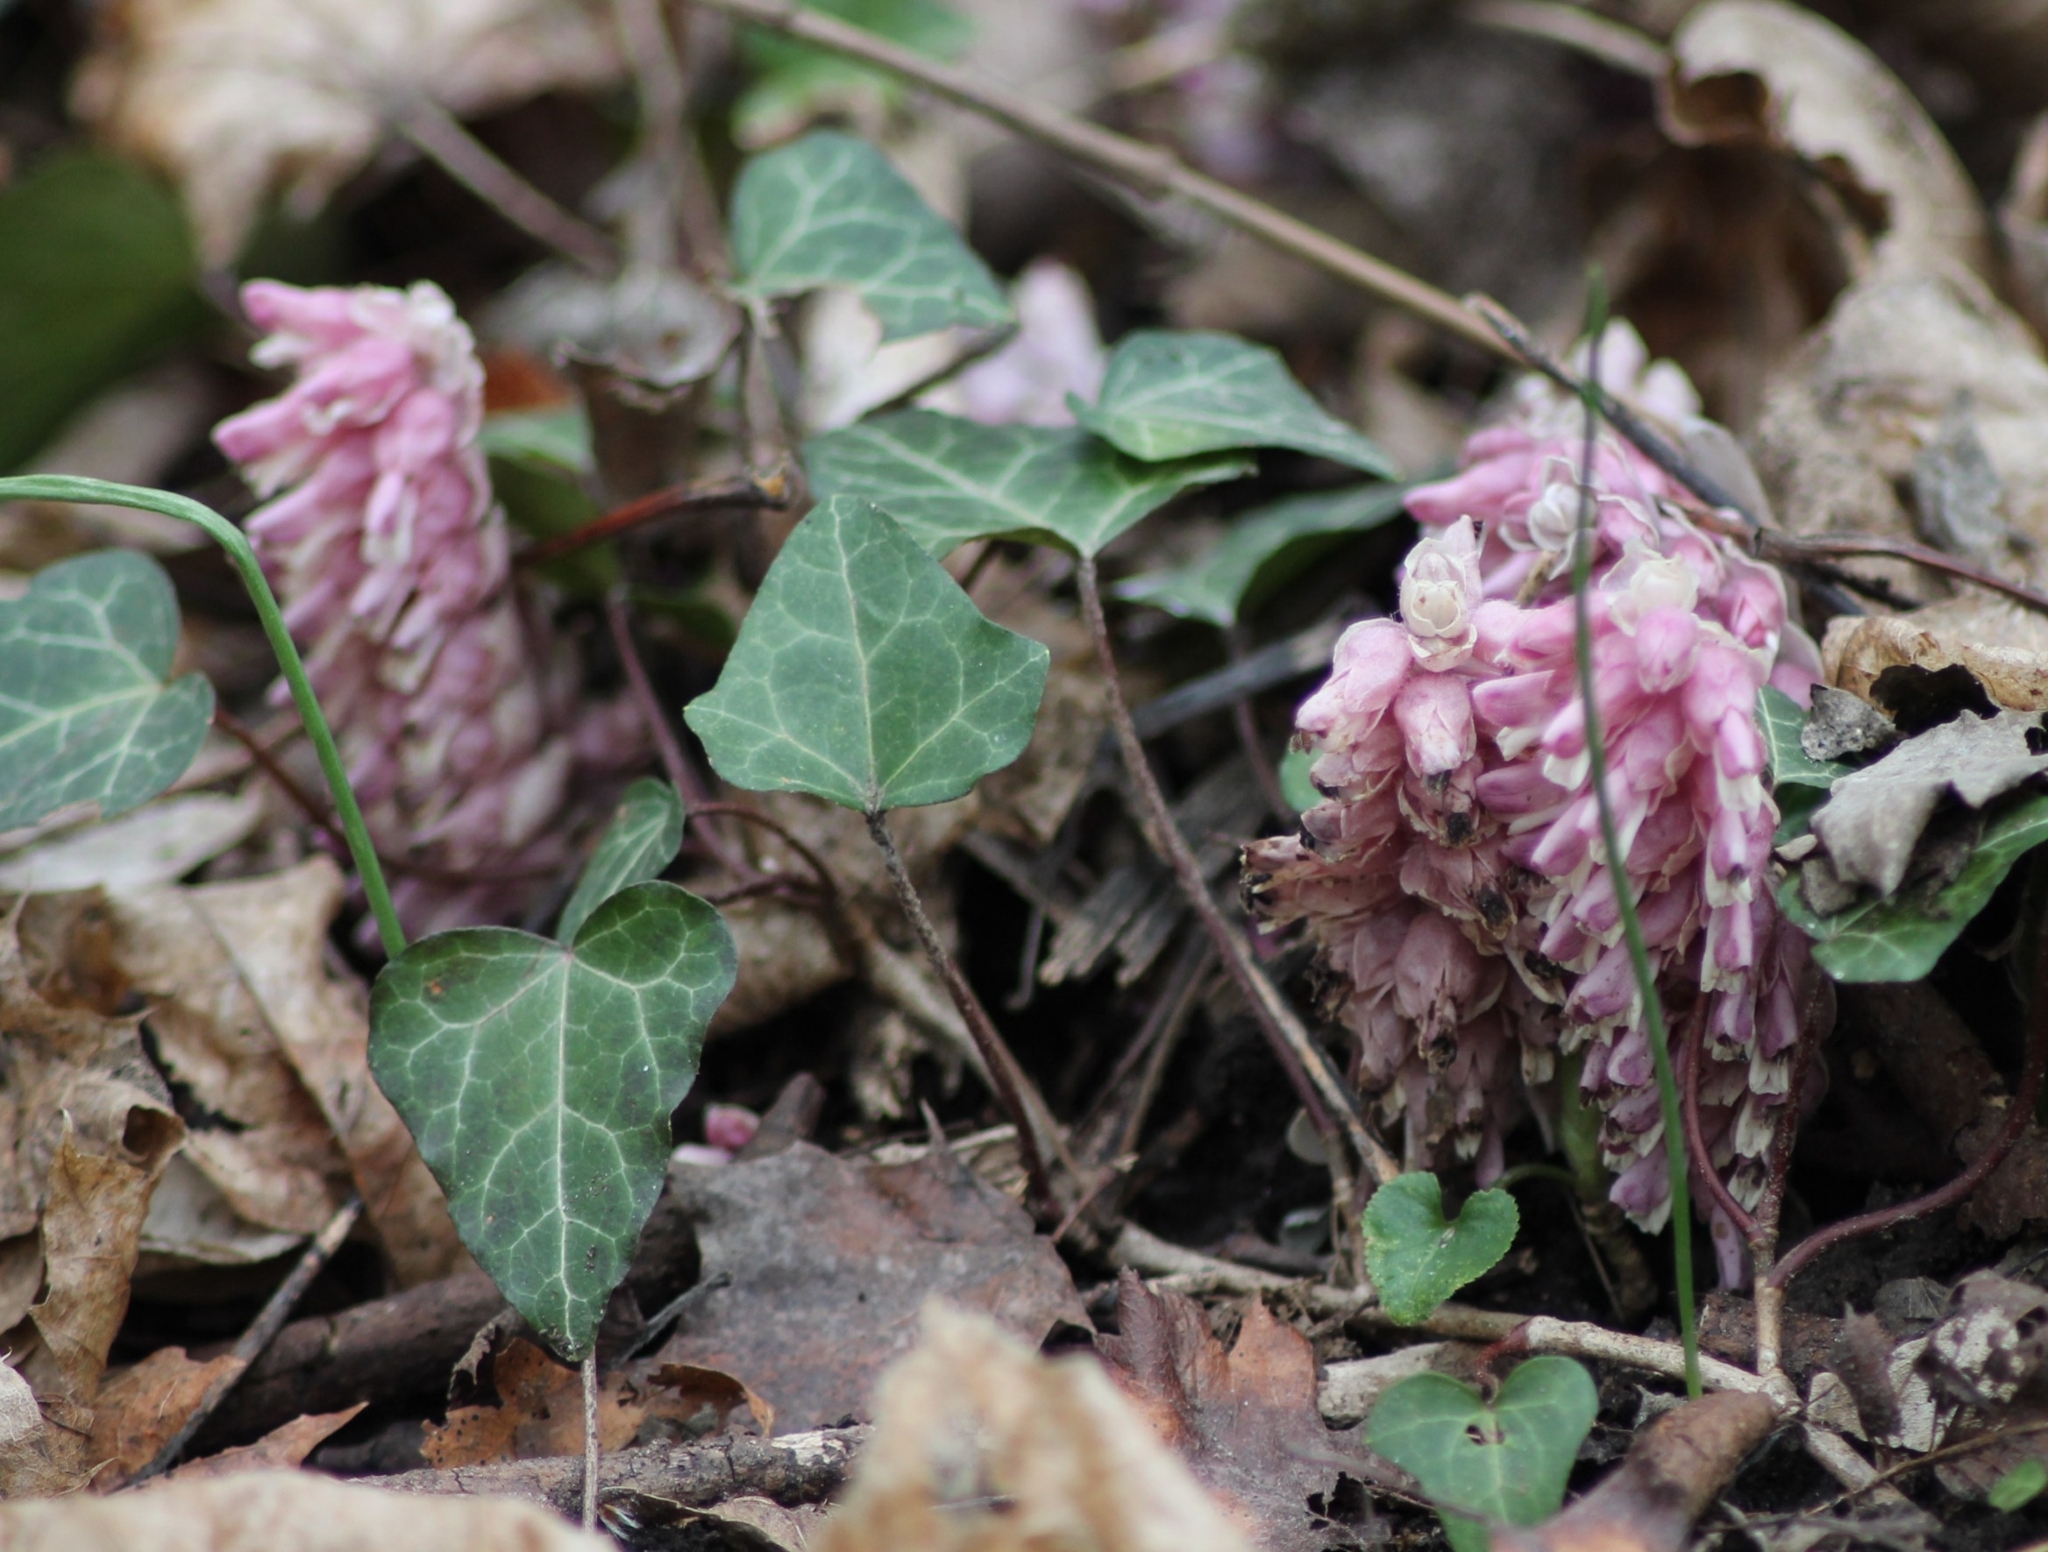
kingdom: Plantae
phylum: Tracheophyta
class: Magnoliopsida
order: Lamiales
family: Orobanchaceae
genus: Lathraea
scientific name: Lathraea squamaria
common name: Toothwort
